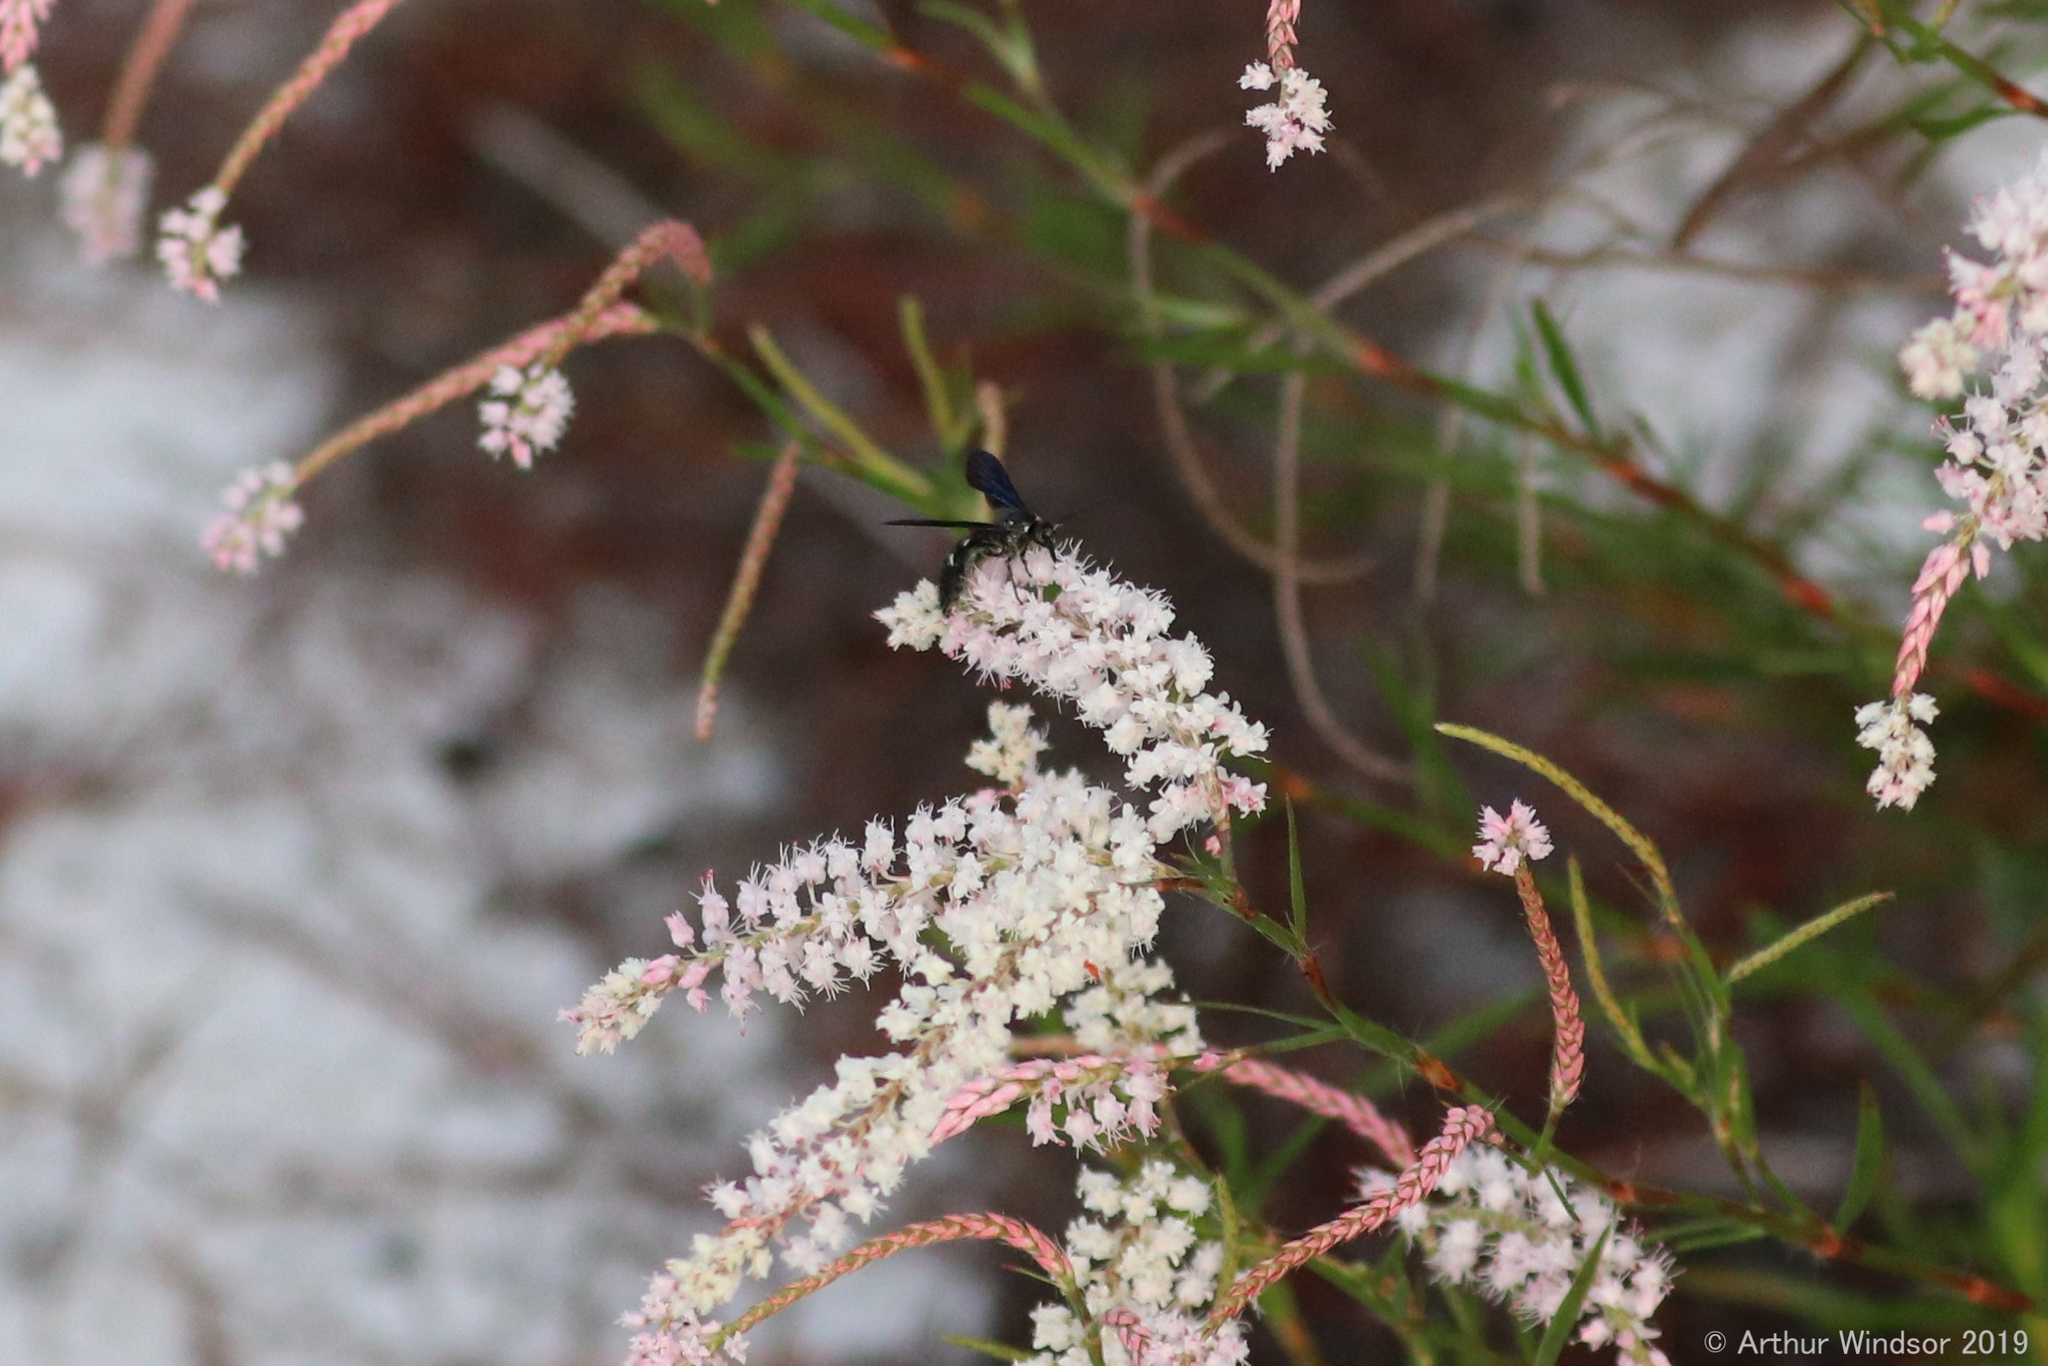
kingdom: Animalia
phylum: Arthropoda
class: Insecta
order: Hymenoptera
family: Scoliidae
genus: Scolia
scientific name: Scolia bicincta
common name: Double-banded scoliid wasp
